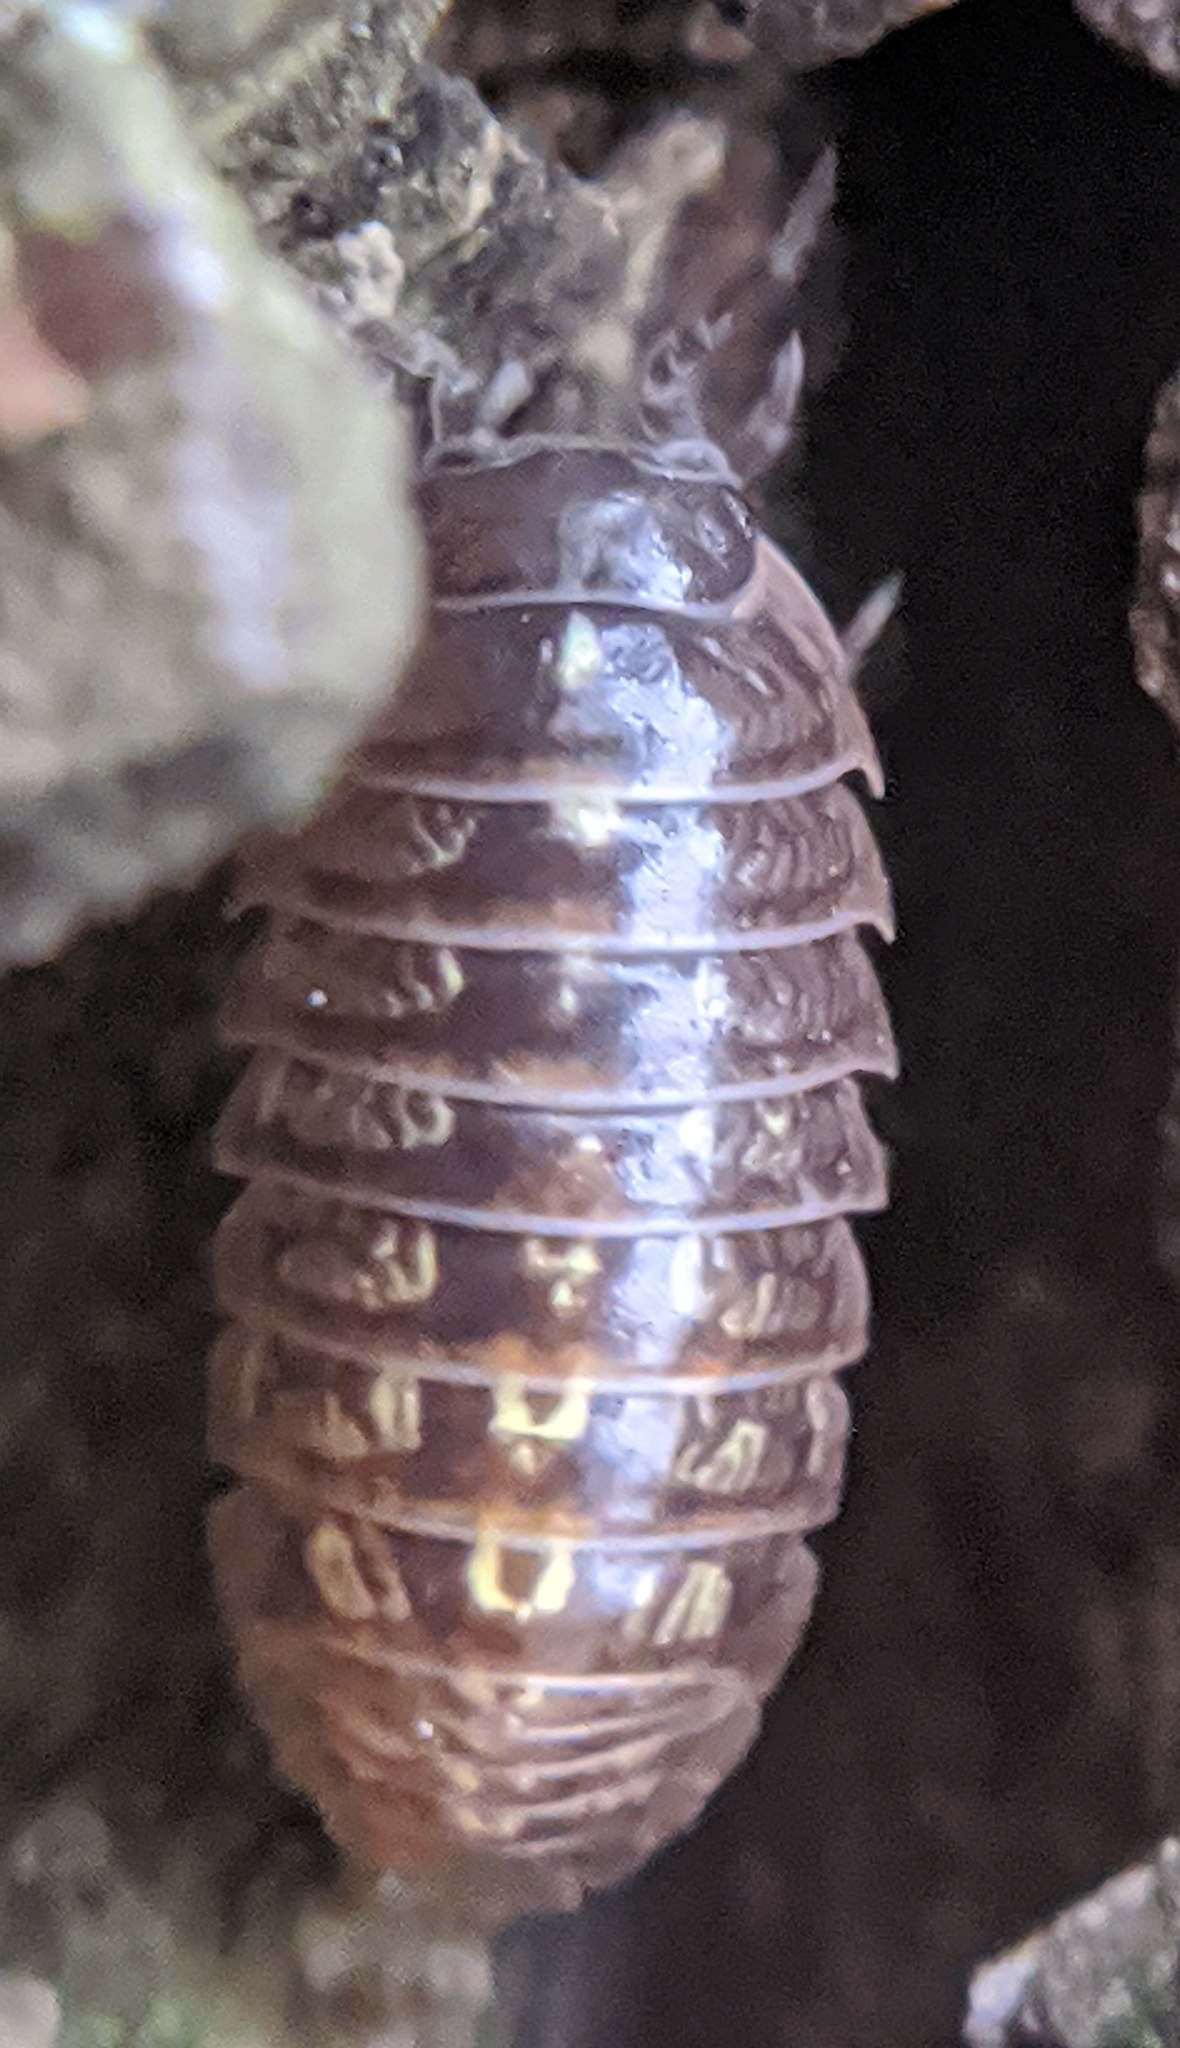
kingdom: Animalia
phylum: Arthropoda
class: Malacostraca
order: Isopoda
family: Armadillidiidae
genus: Armadillidium
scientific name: Armadillidium vulgare
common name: Common pill woodlouse
